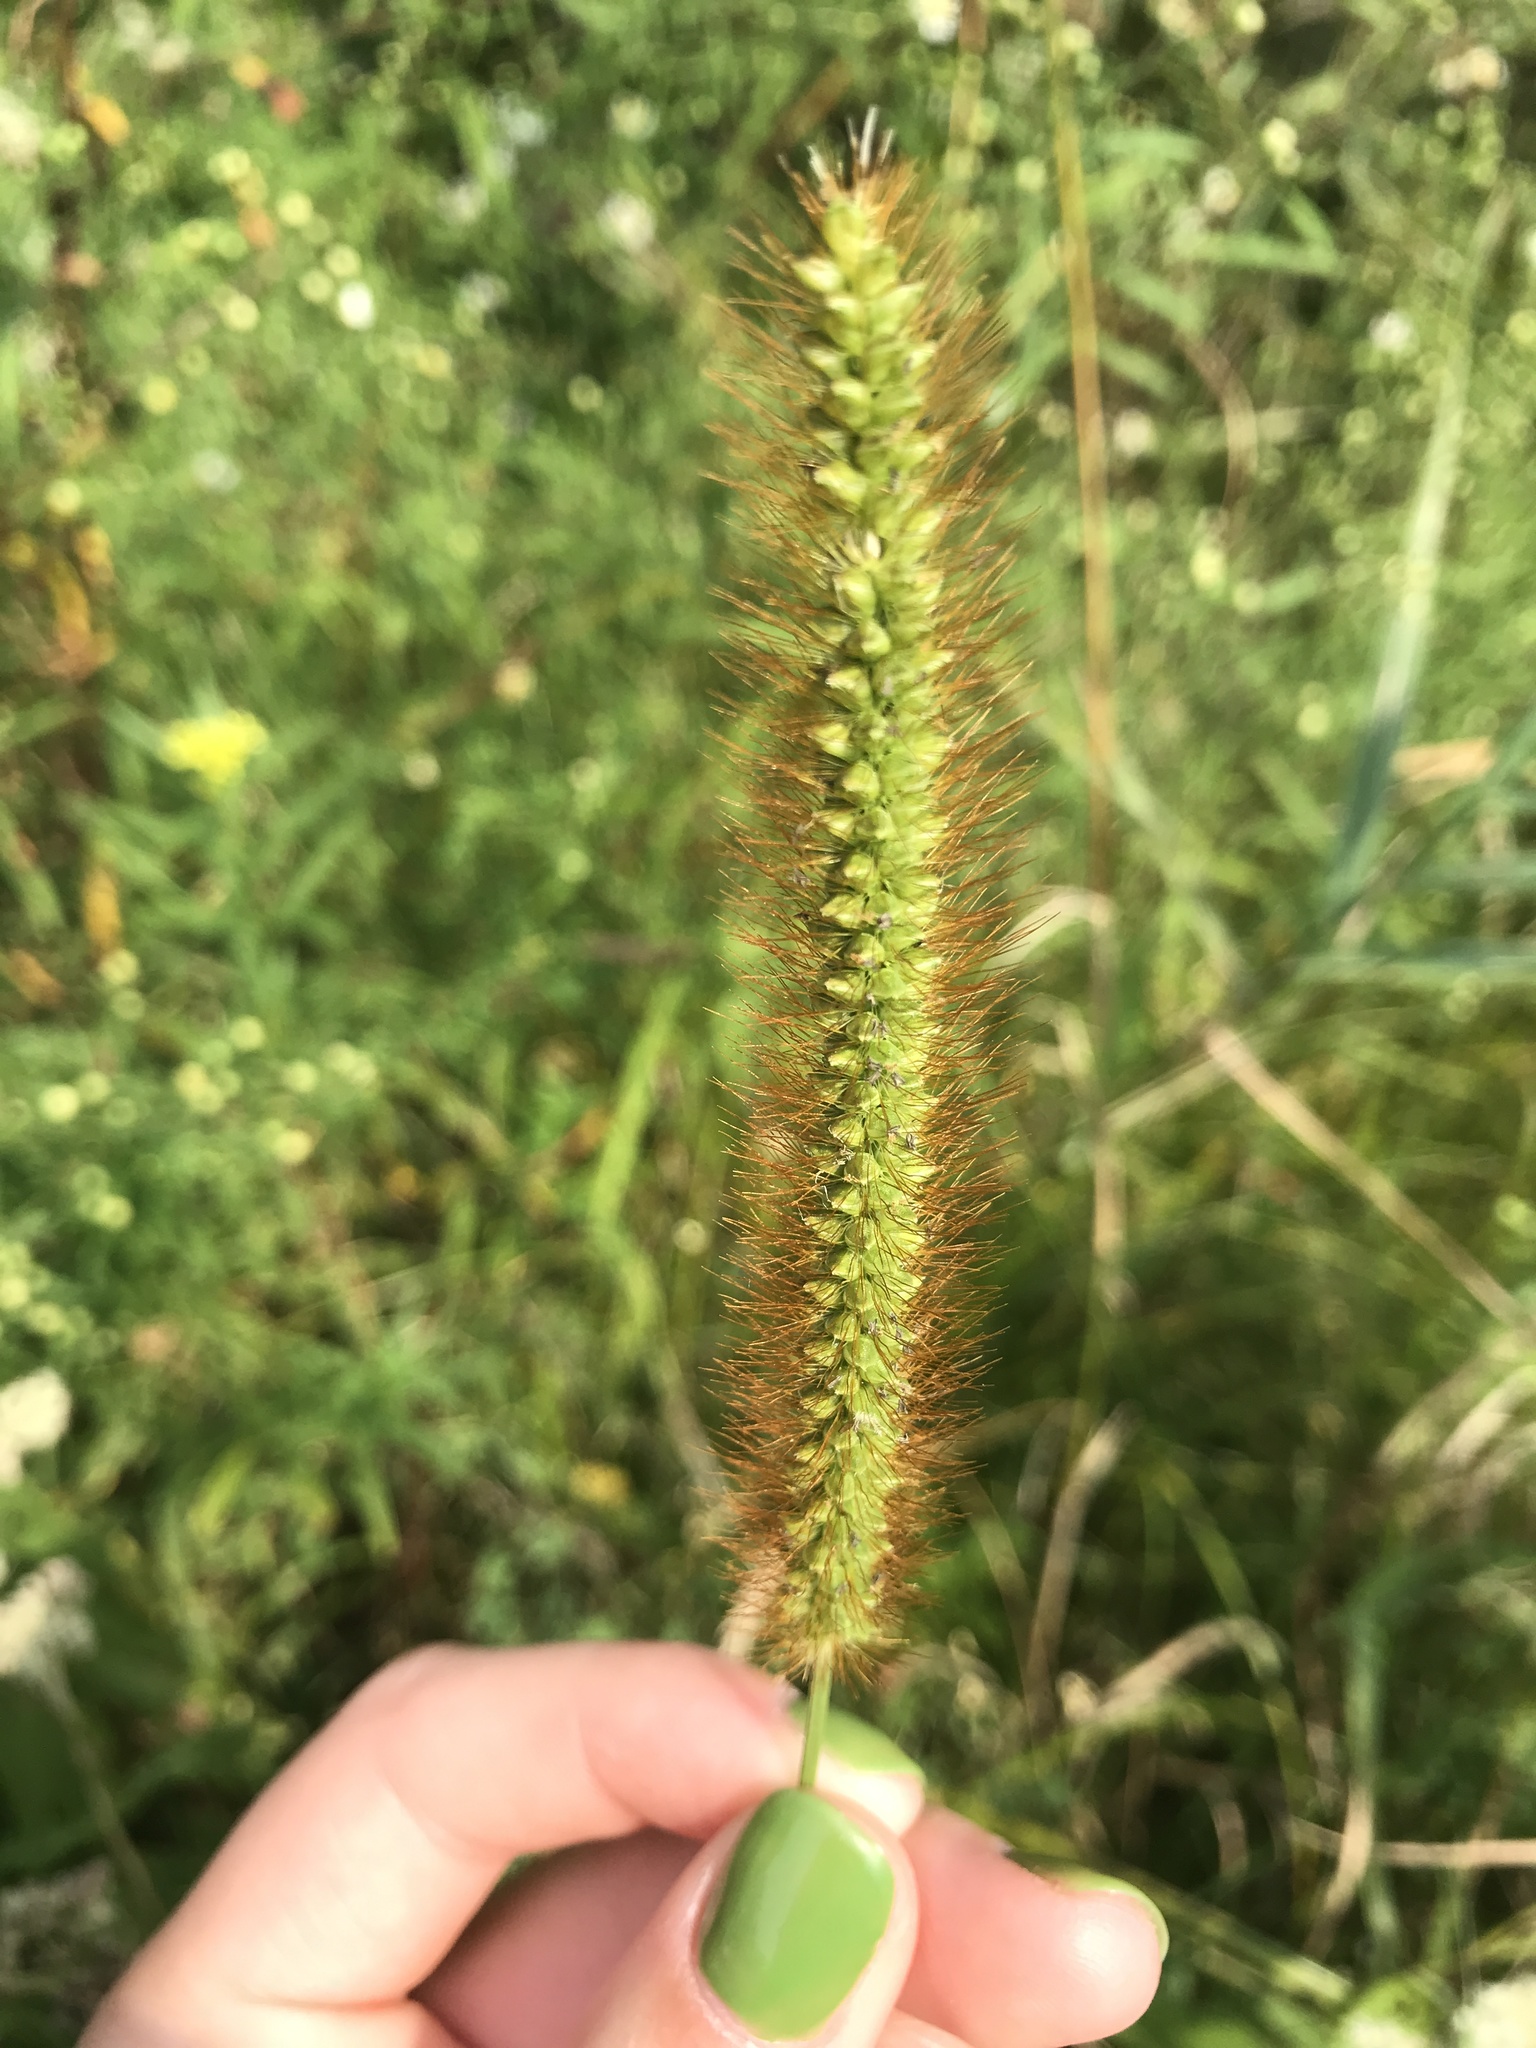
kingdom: Plantae
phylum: Tracheophyta
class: Liliopsida
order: Poales
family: Poaceae
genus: Setaria
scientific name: Setaria pumila
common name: Yellow bristle-grass
